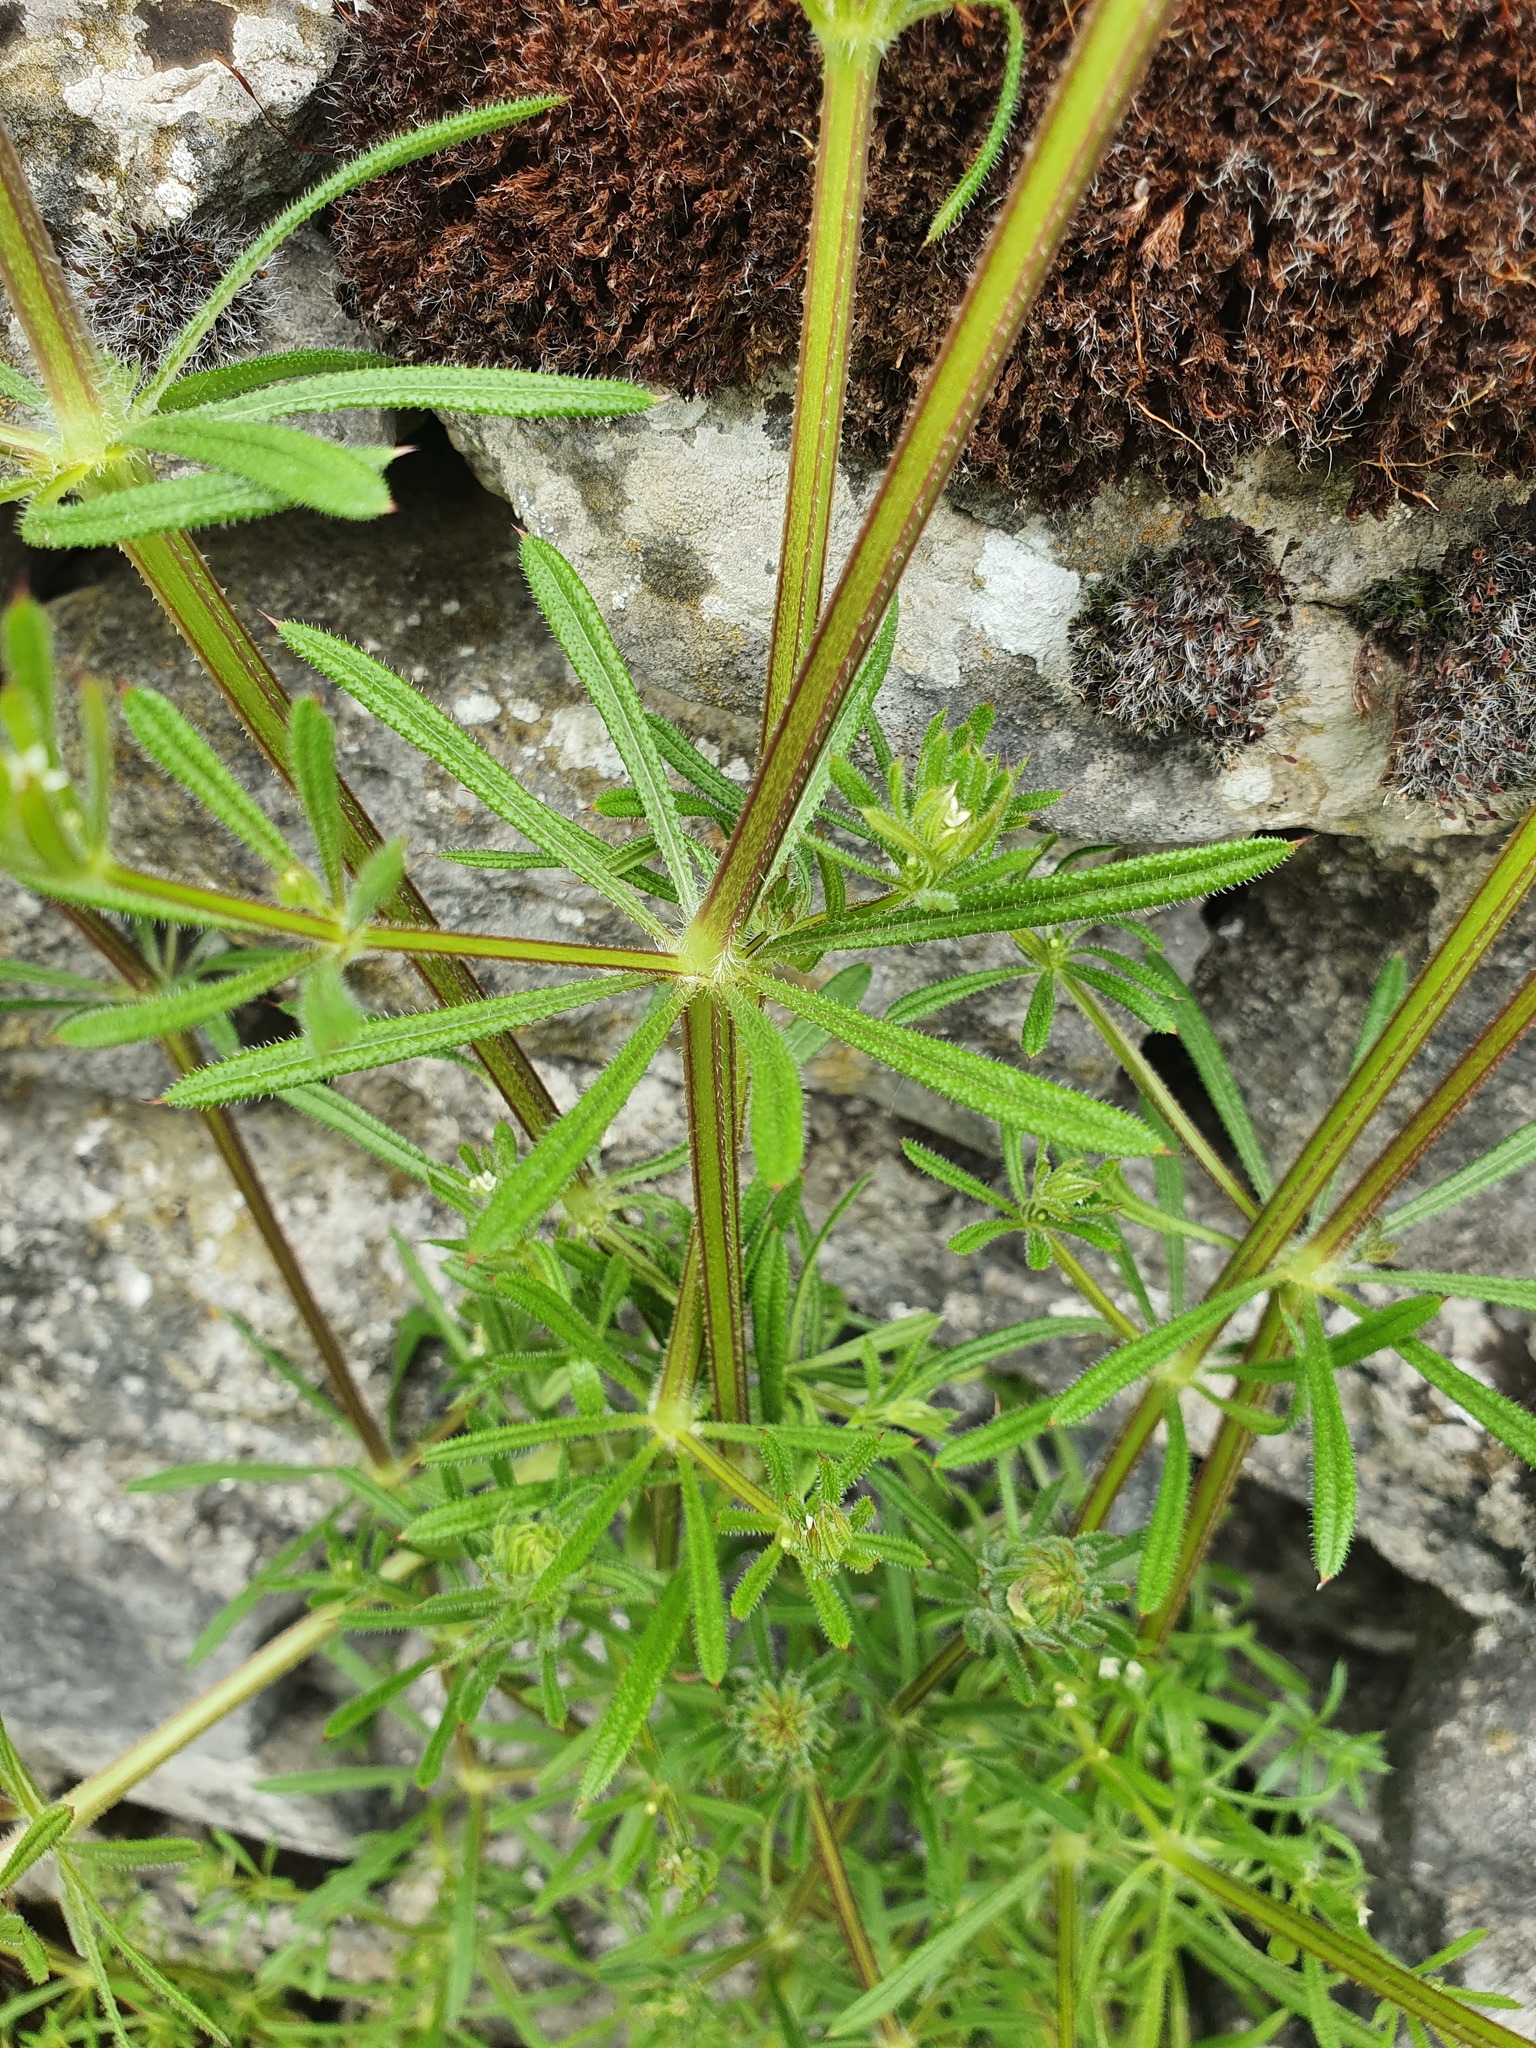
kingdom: Plantae
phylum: Tracheophyta
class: Magnoliopsida
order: Gentianales
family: Rubiaceae
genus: Galium
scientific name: Galium aparine
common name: Cleavers
